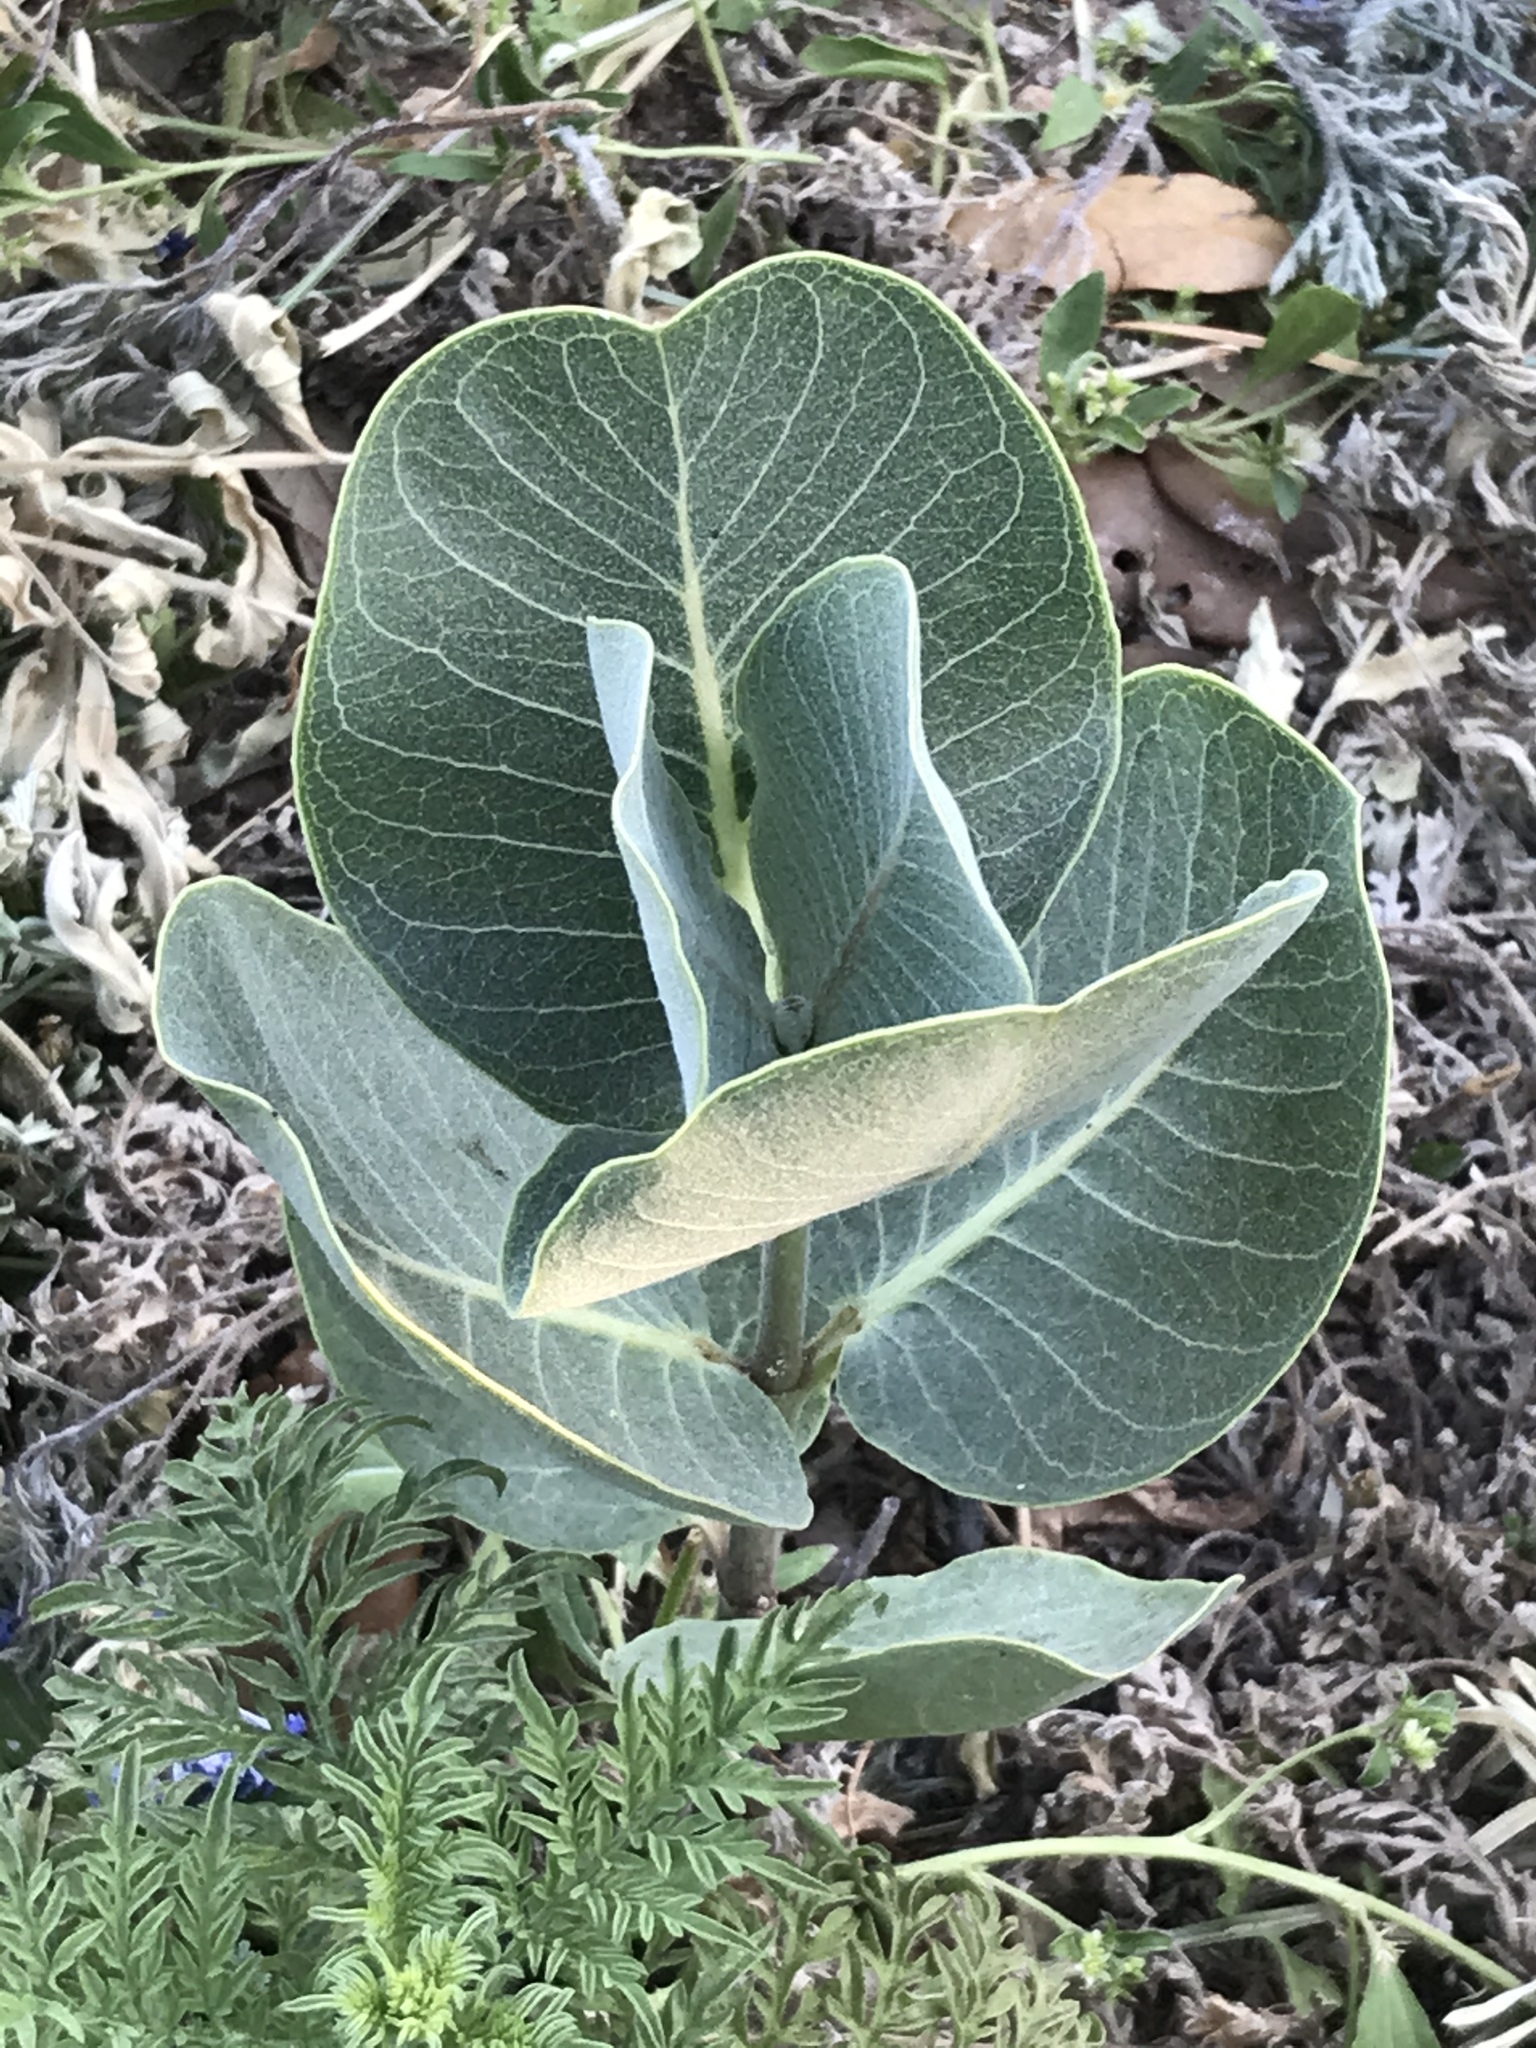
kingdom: Plantae
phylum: Tracheophyta
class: Magnoliopsida
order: Gentianales
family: Apocynaceae
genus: Asclepias
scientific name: Asclepias latifolia
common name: Broadleaf milkweed
